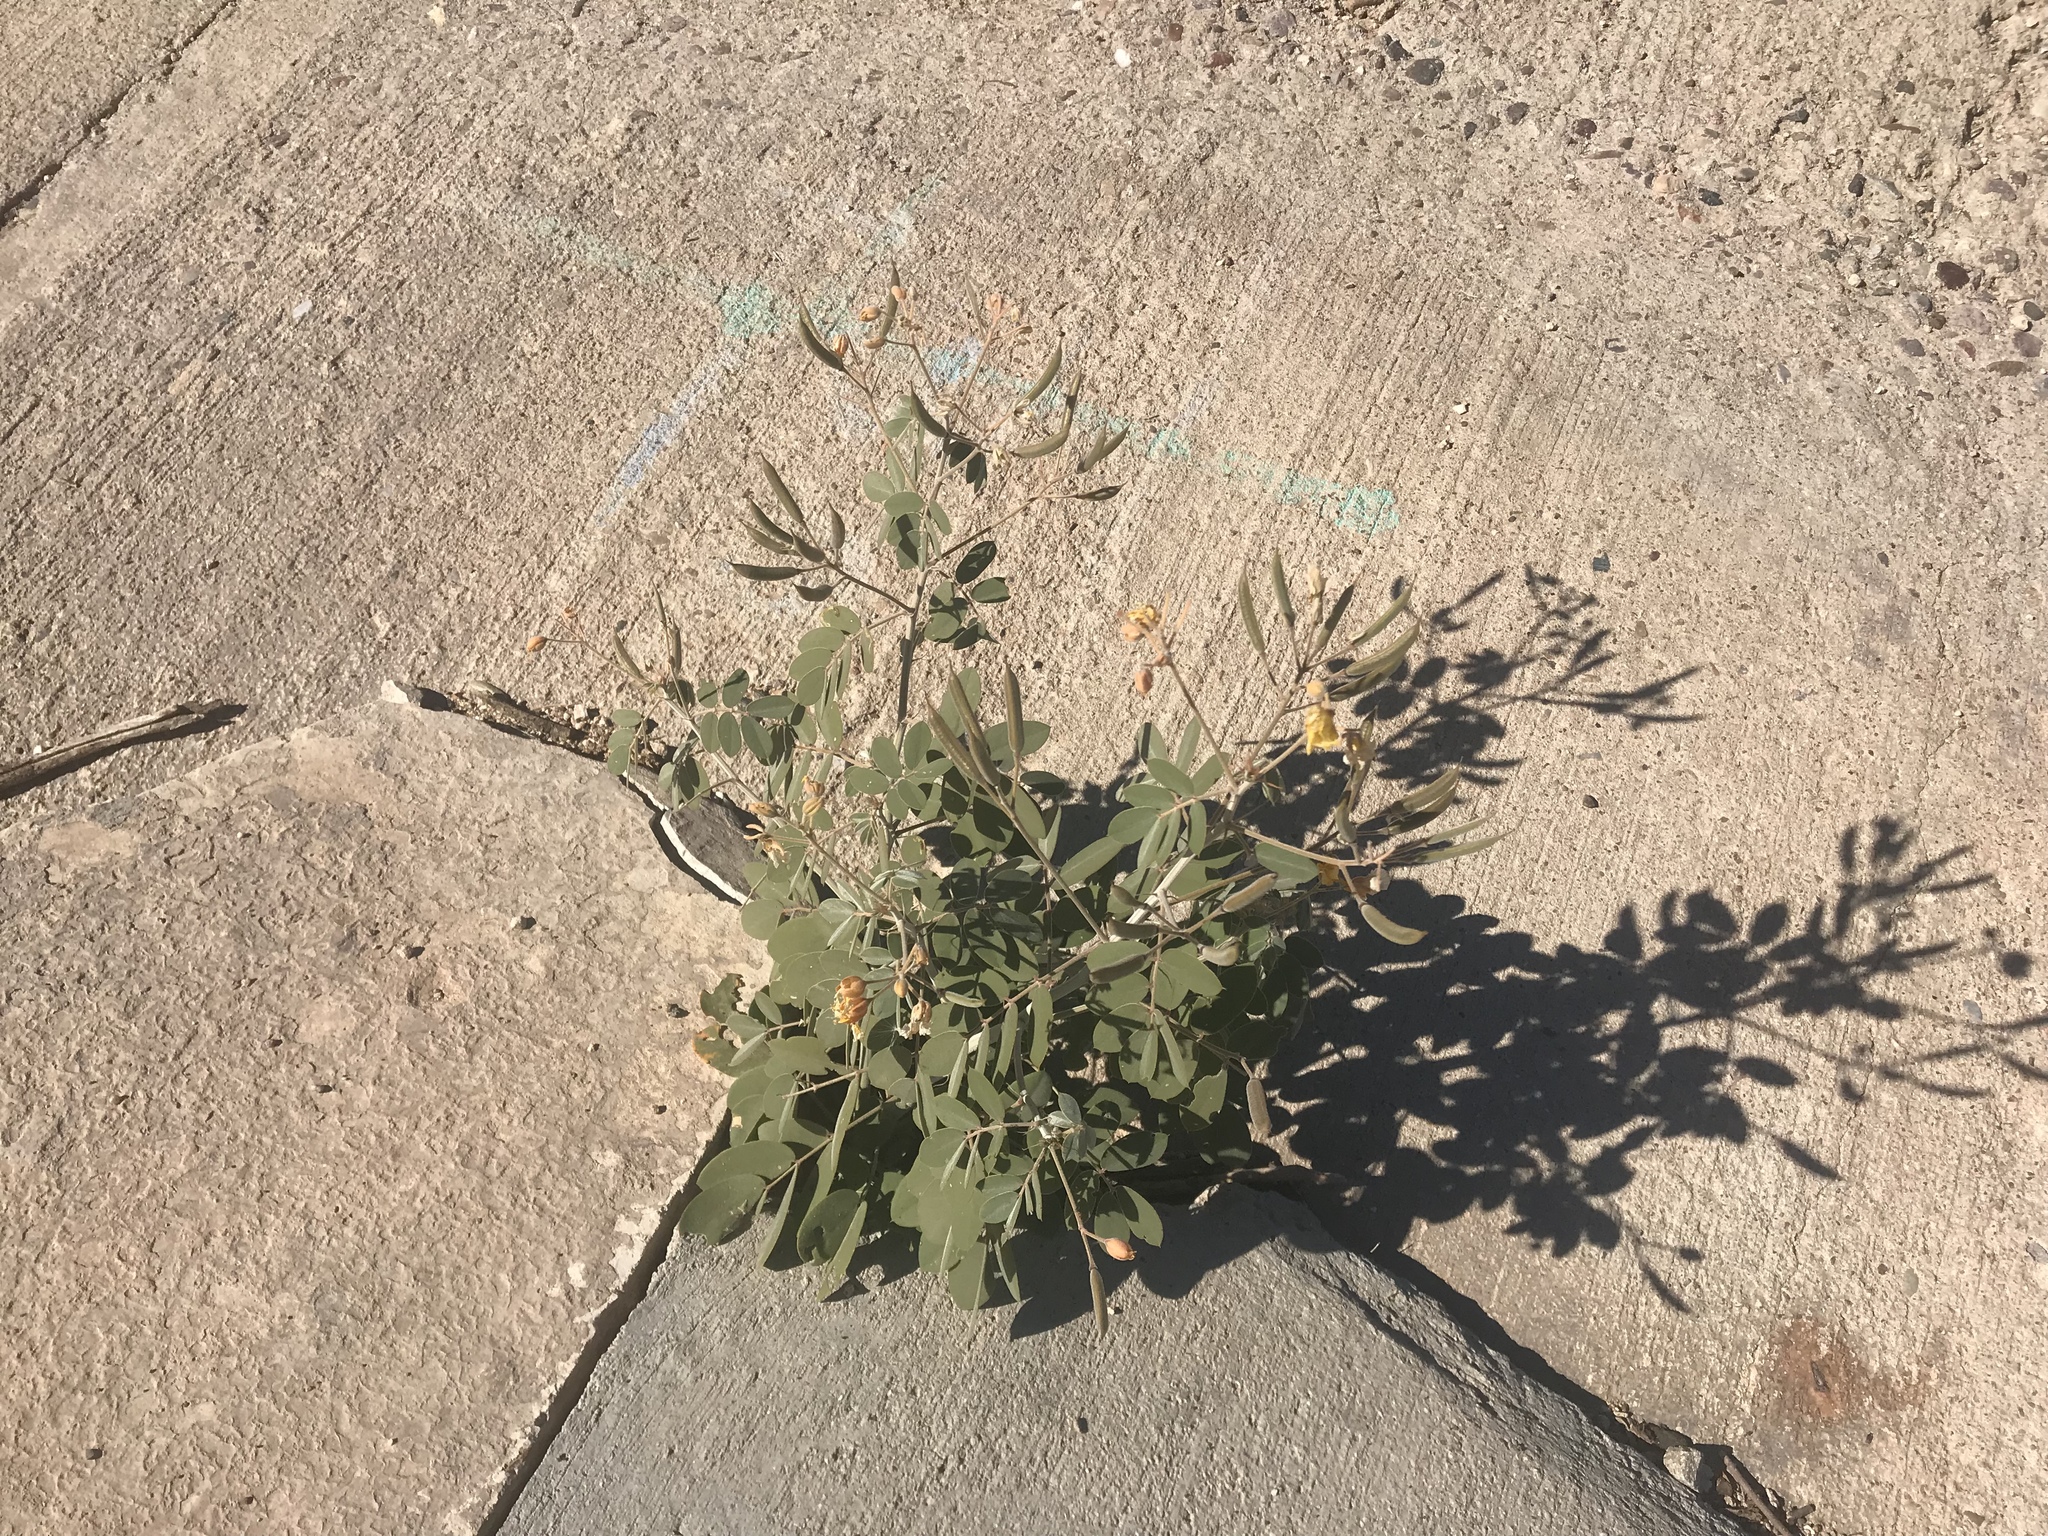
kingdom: Plantae
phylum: Tracheophyta
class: Magnoliopsida
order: Fabales
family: Fabaceae
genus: Senna
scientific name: Senna covesii
